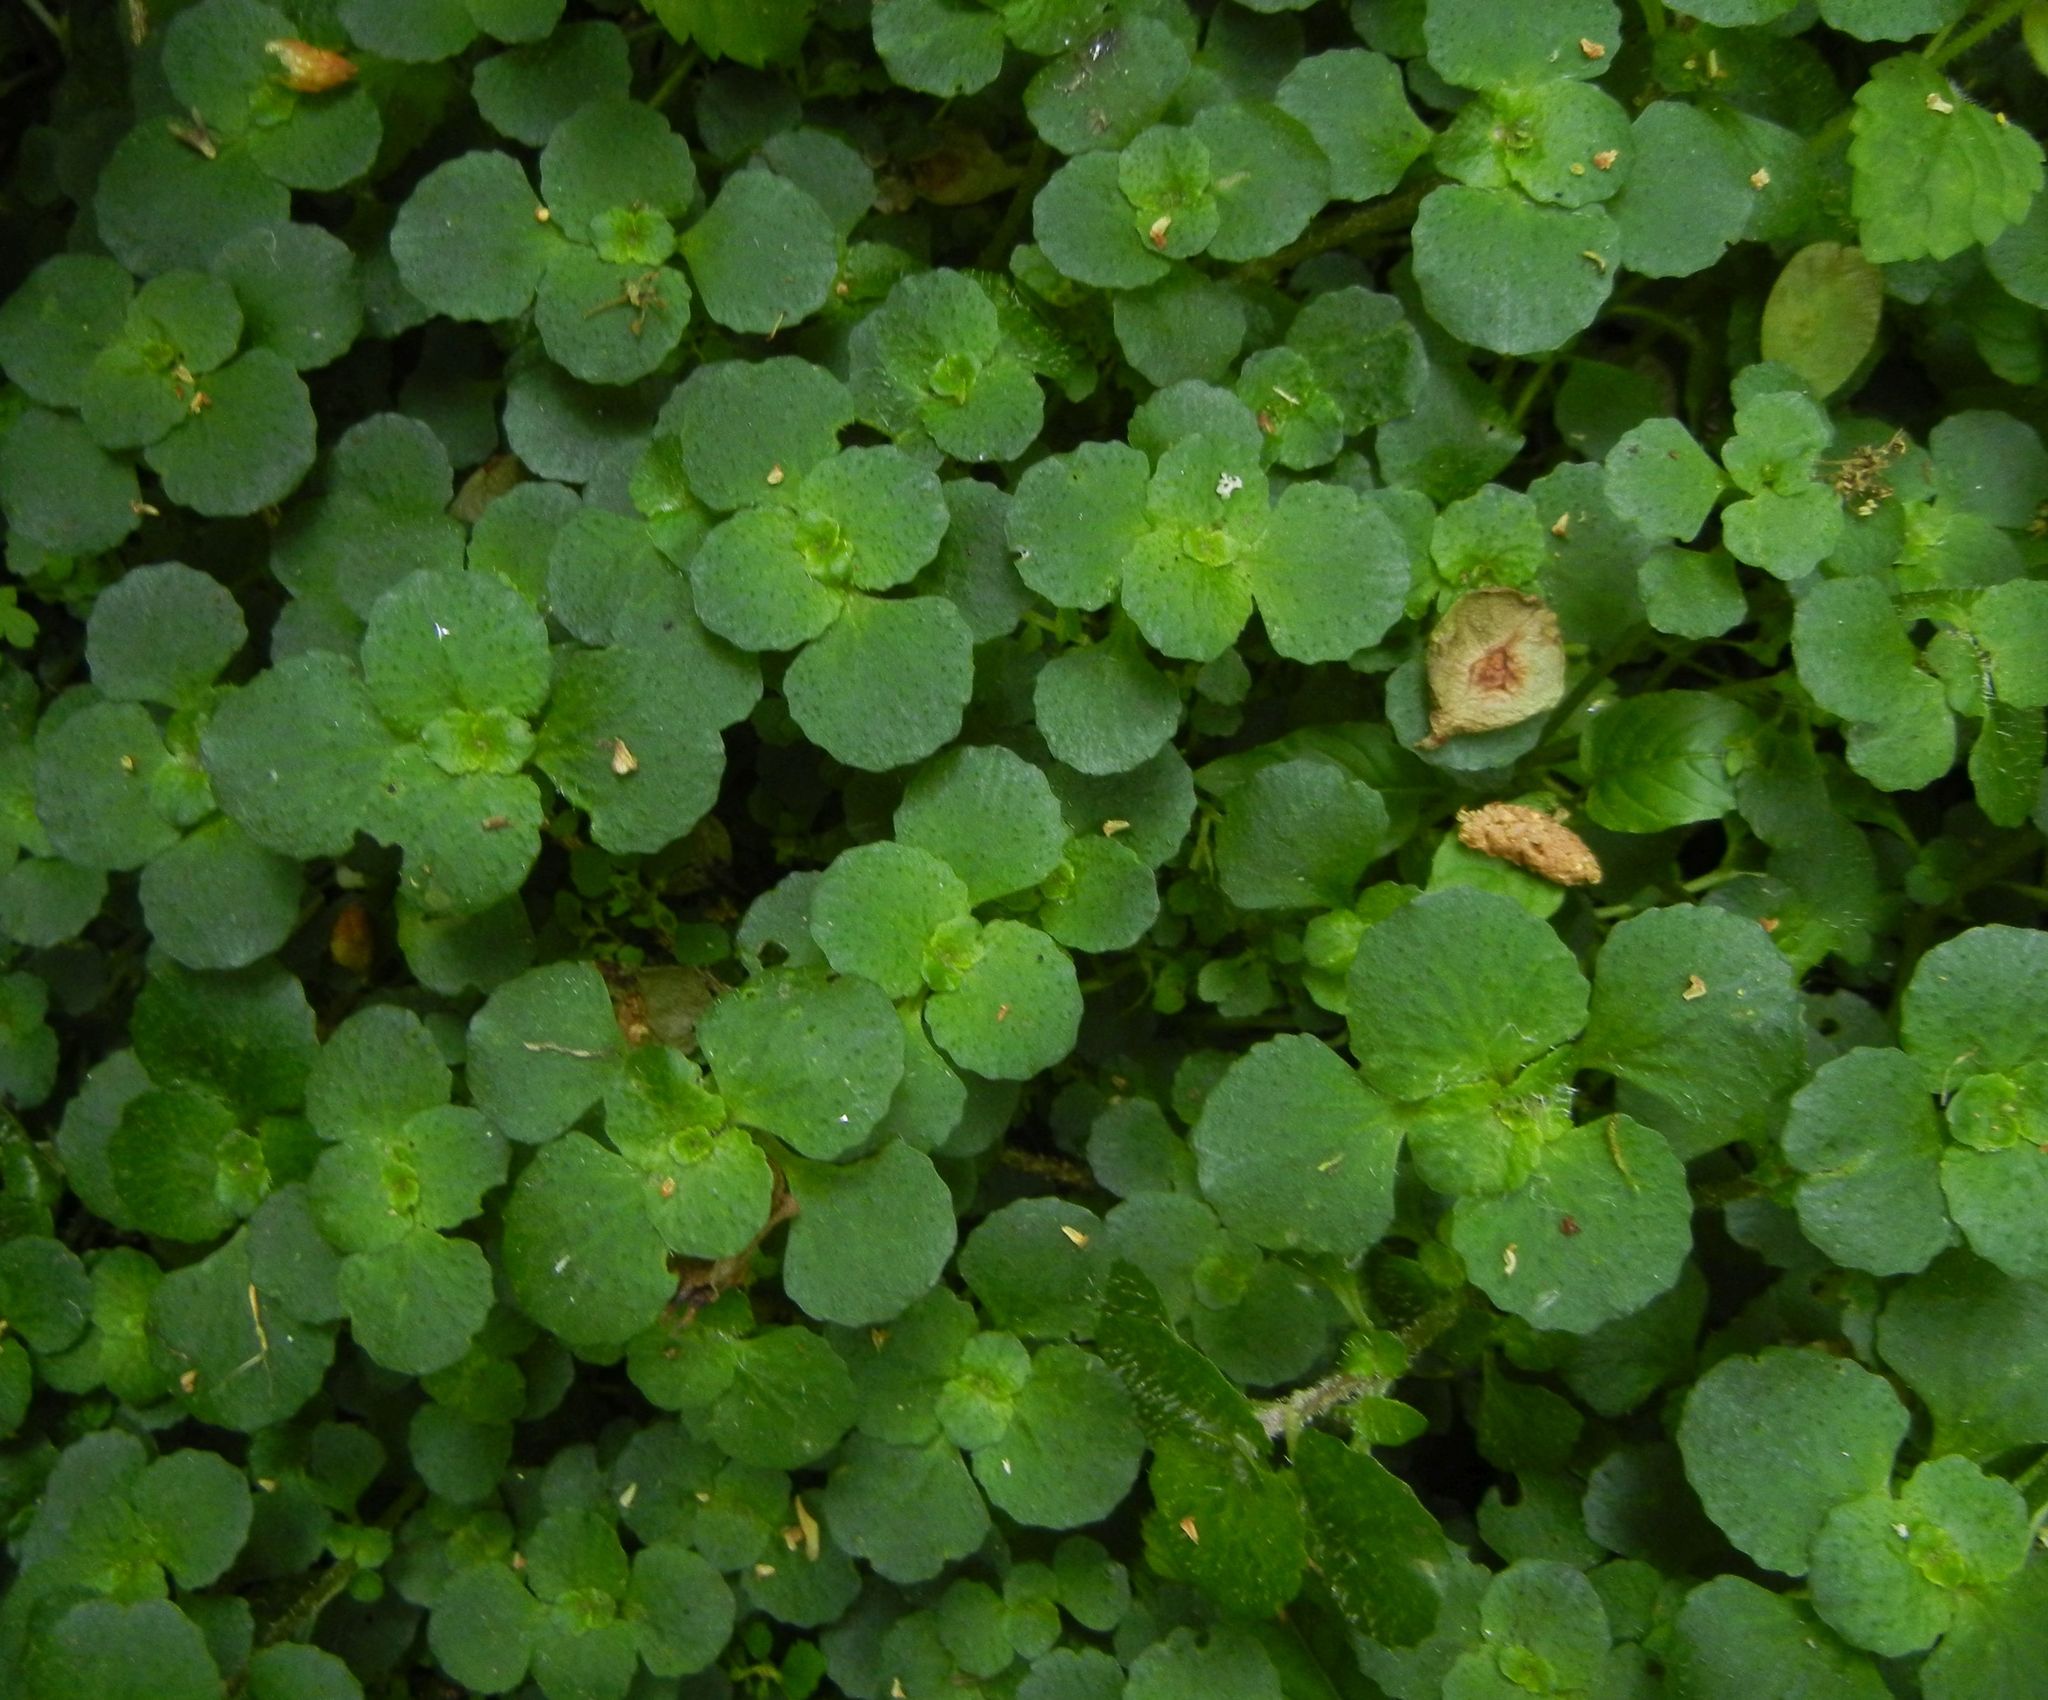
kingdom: Plantae
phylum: Tracheophyta
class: Magnoliopsida
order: Saxifragales
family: Saxifragaceae
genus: Chrysosplenium
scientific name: Chrysosplenium oppositifolium
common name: Opposite-leaved golden-saxifrage
